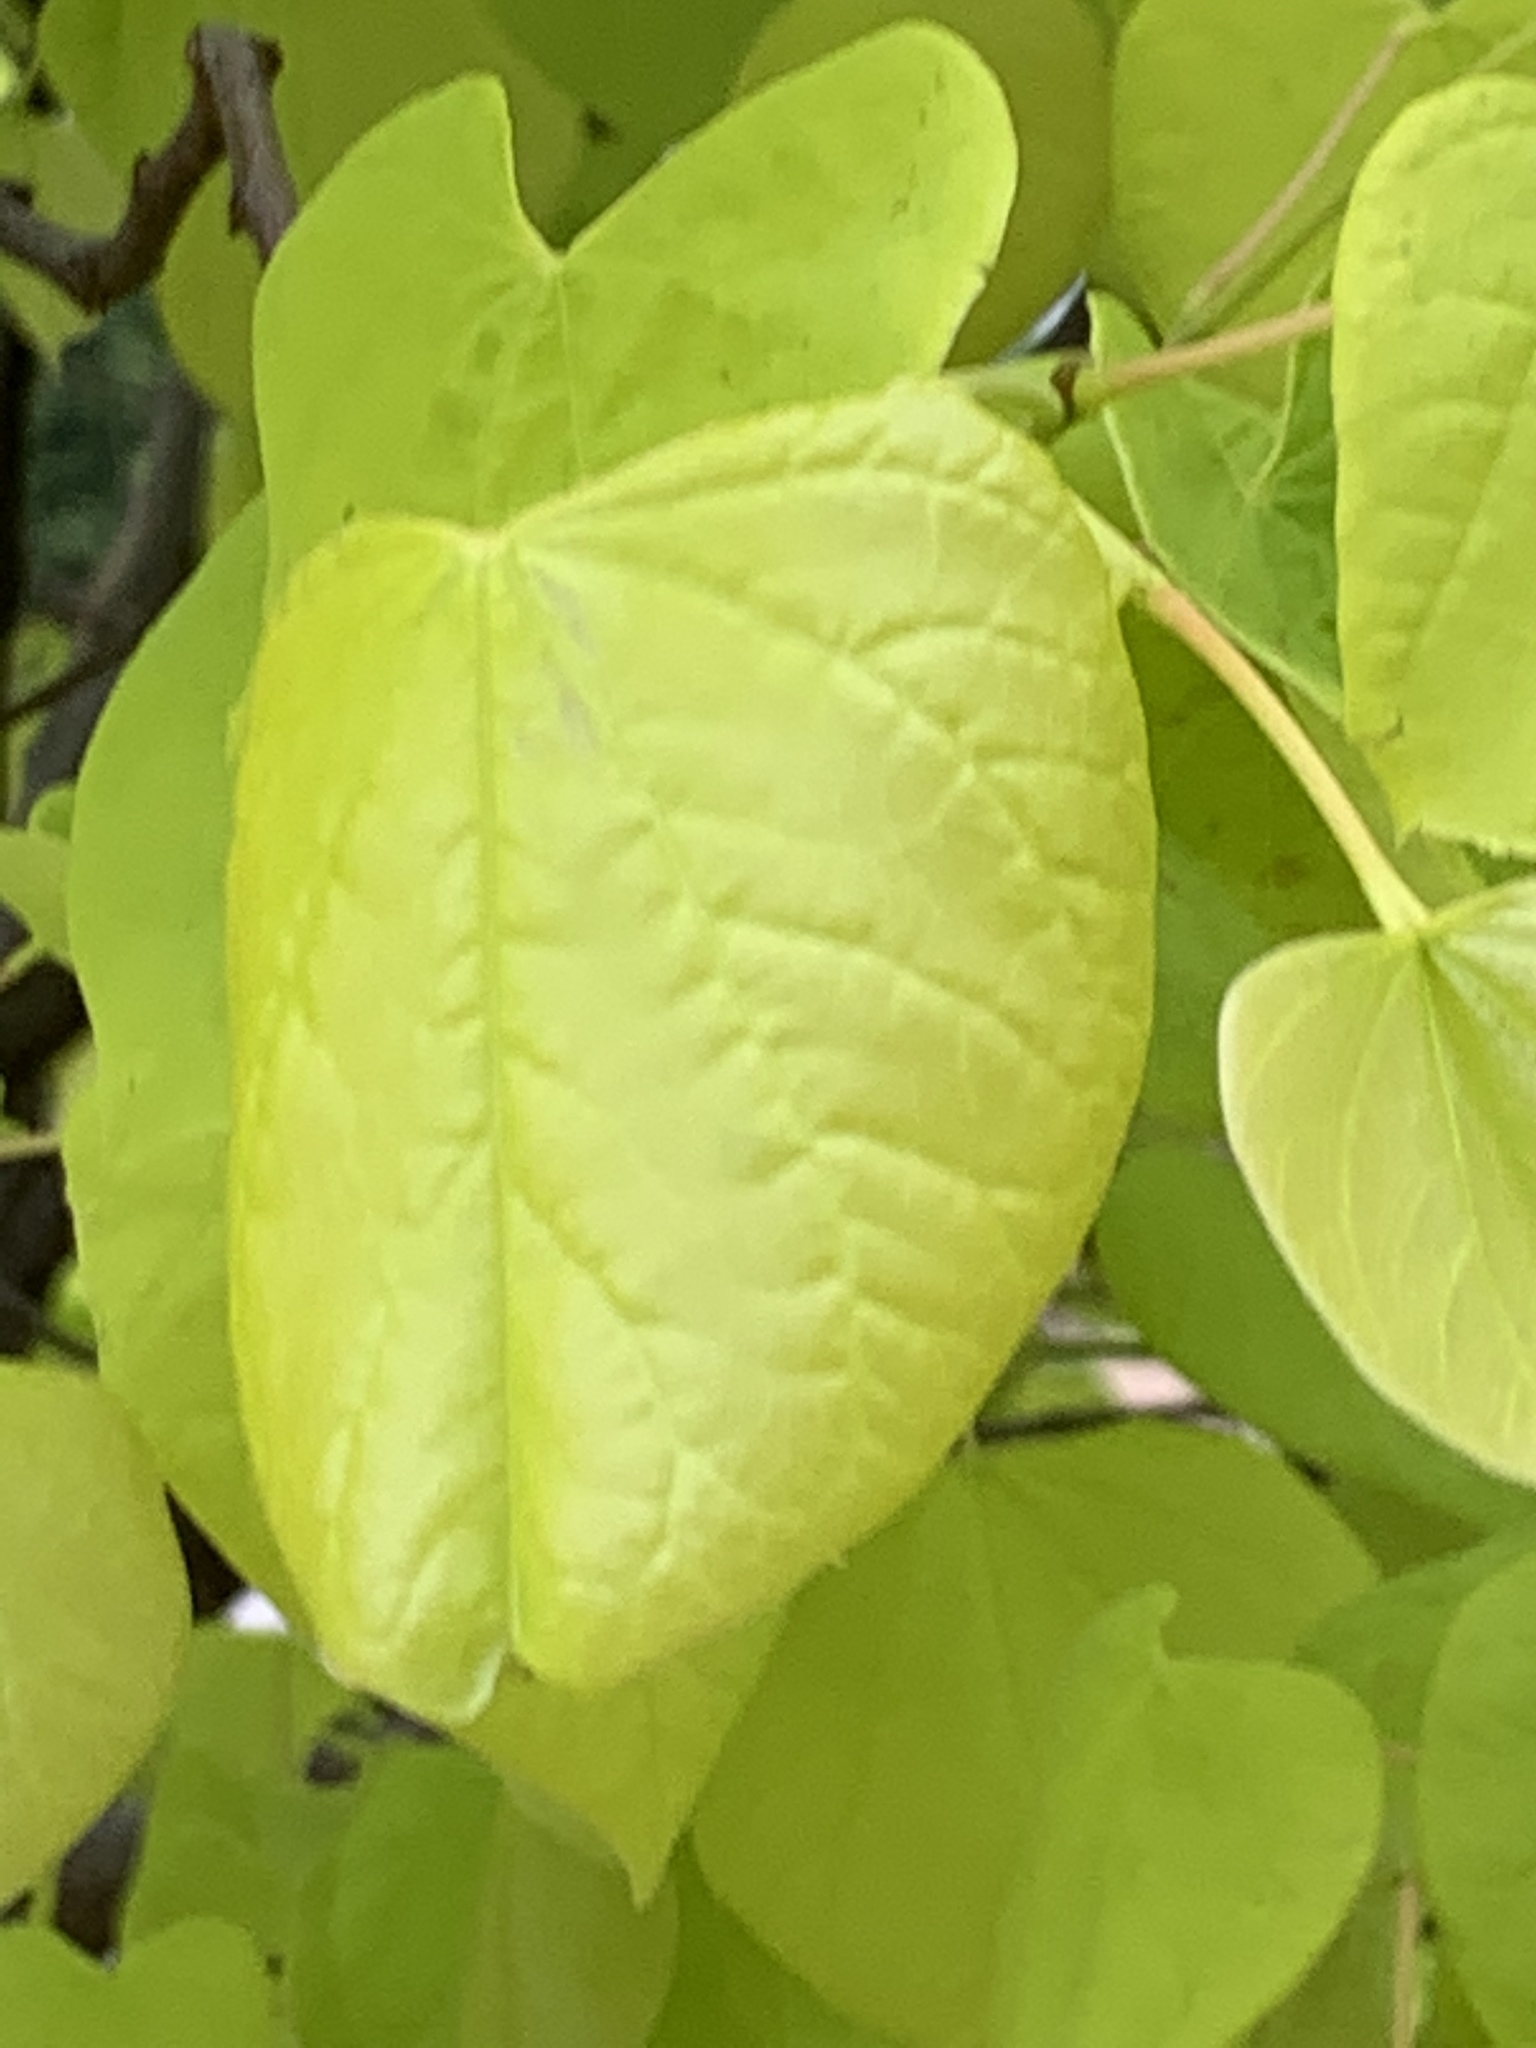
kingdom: Plantae
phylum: Tracheophyta
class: Magnoliopsida
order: Fabales
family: Fabaceae
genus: Cercis
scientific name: Cercis canadensis
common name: Eastern redbud
